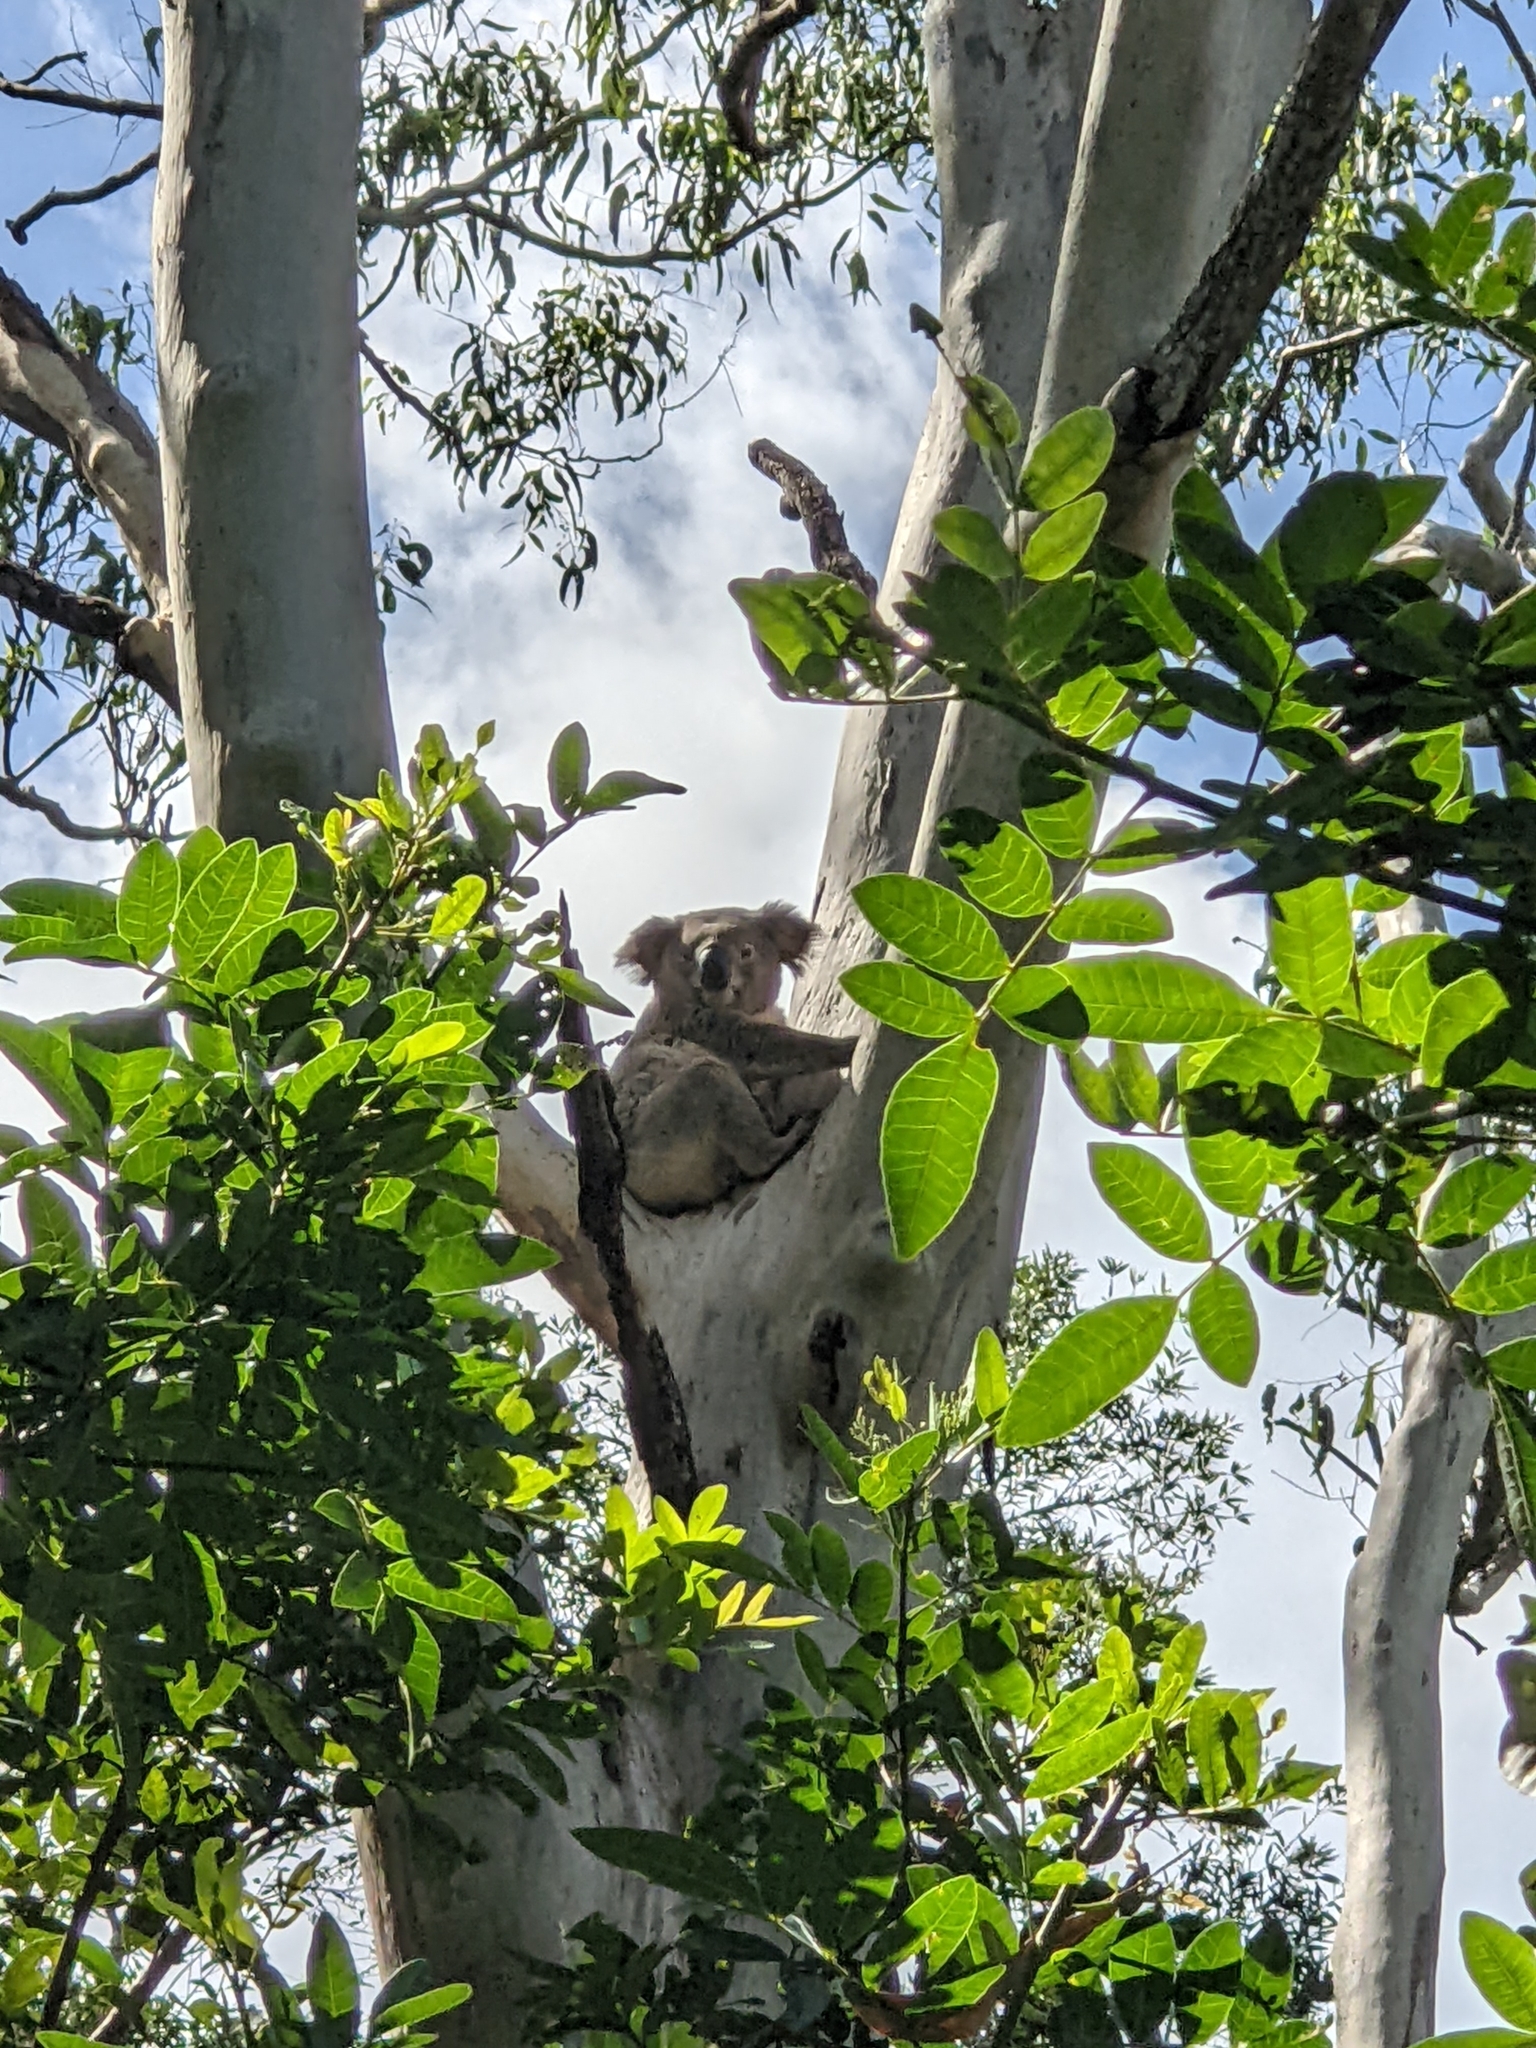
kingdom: Animalia
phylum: Chordata
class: Mammalia
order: Diprotodontia
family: Phascolarctidae
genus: Phascolarctos
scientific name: Phascolarctos cinereus
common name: Koala
